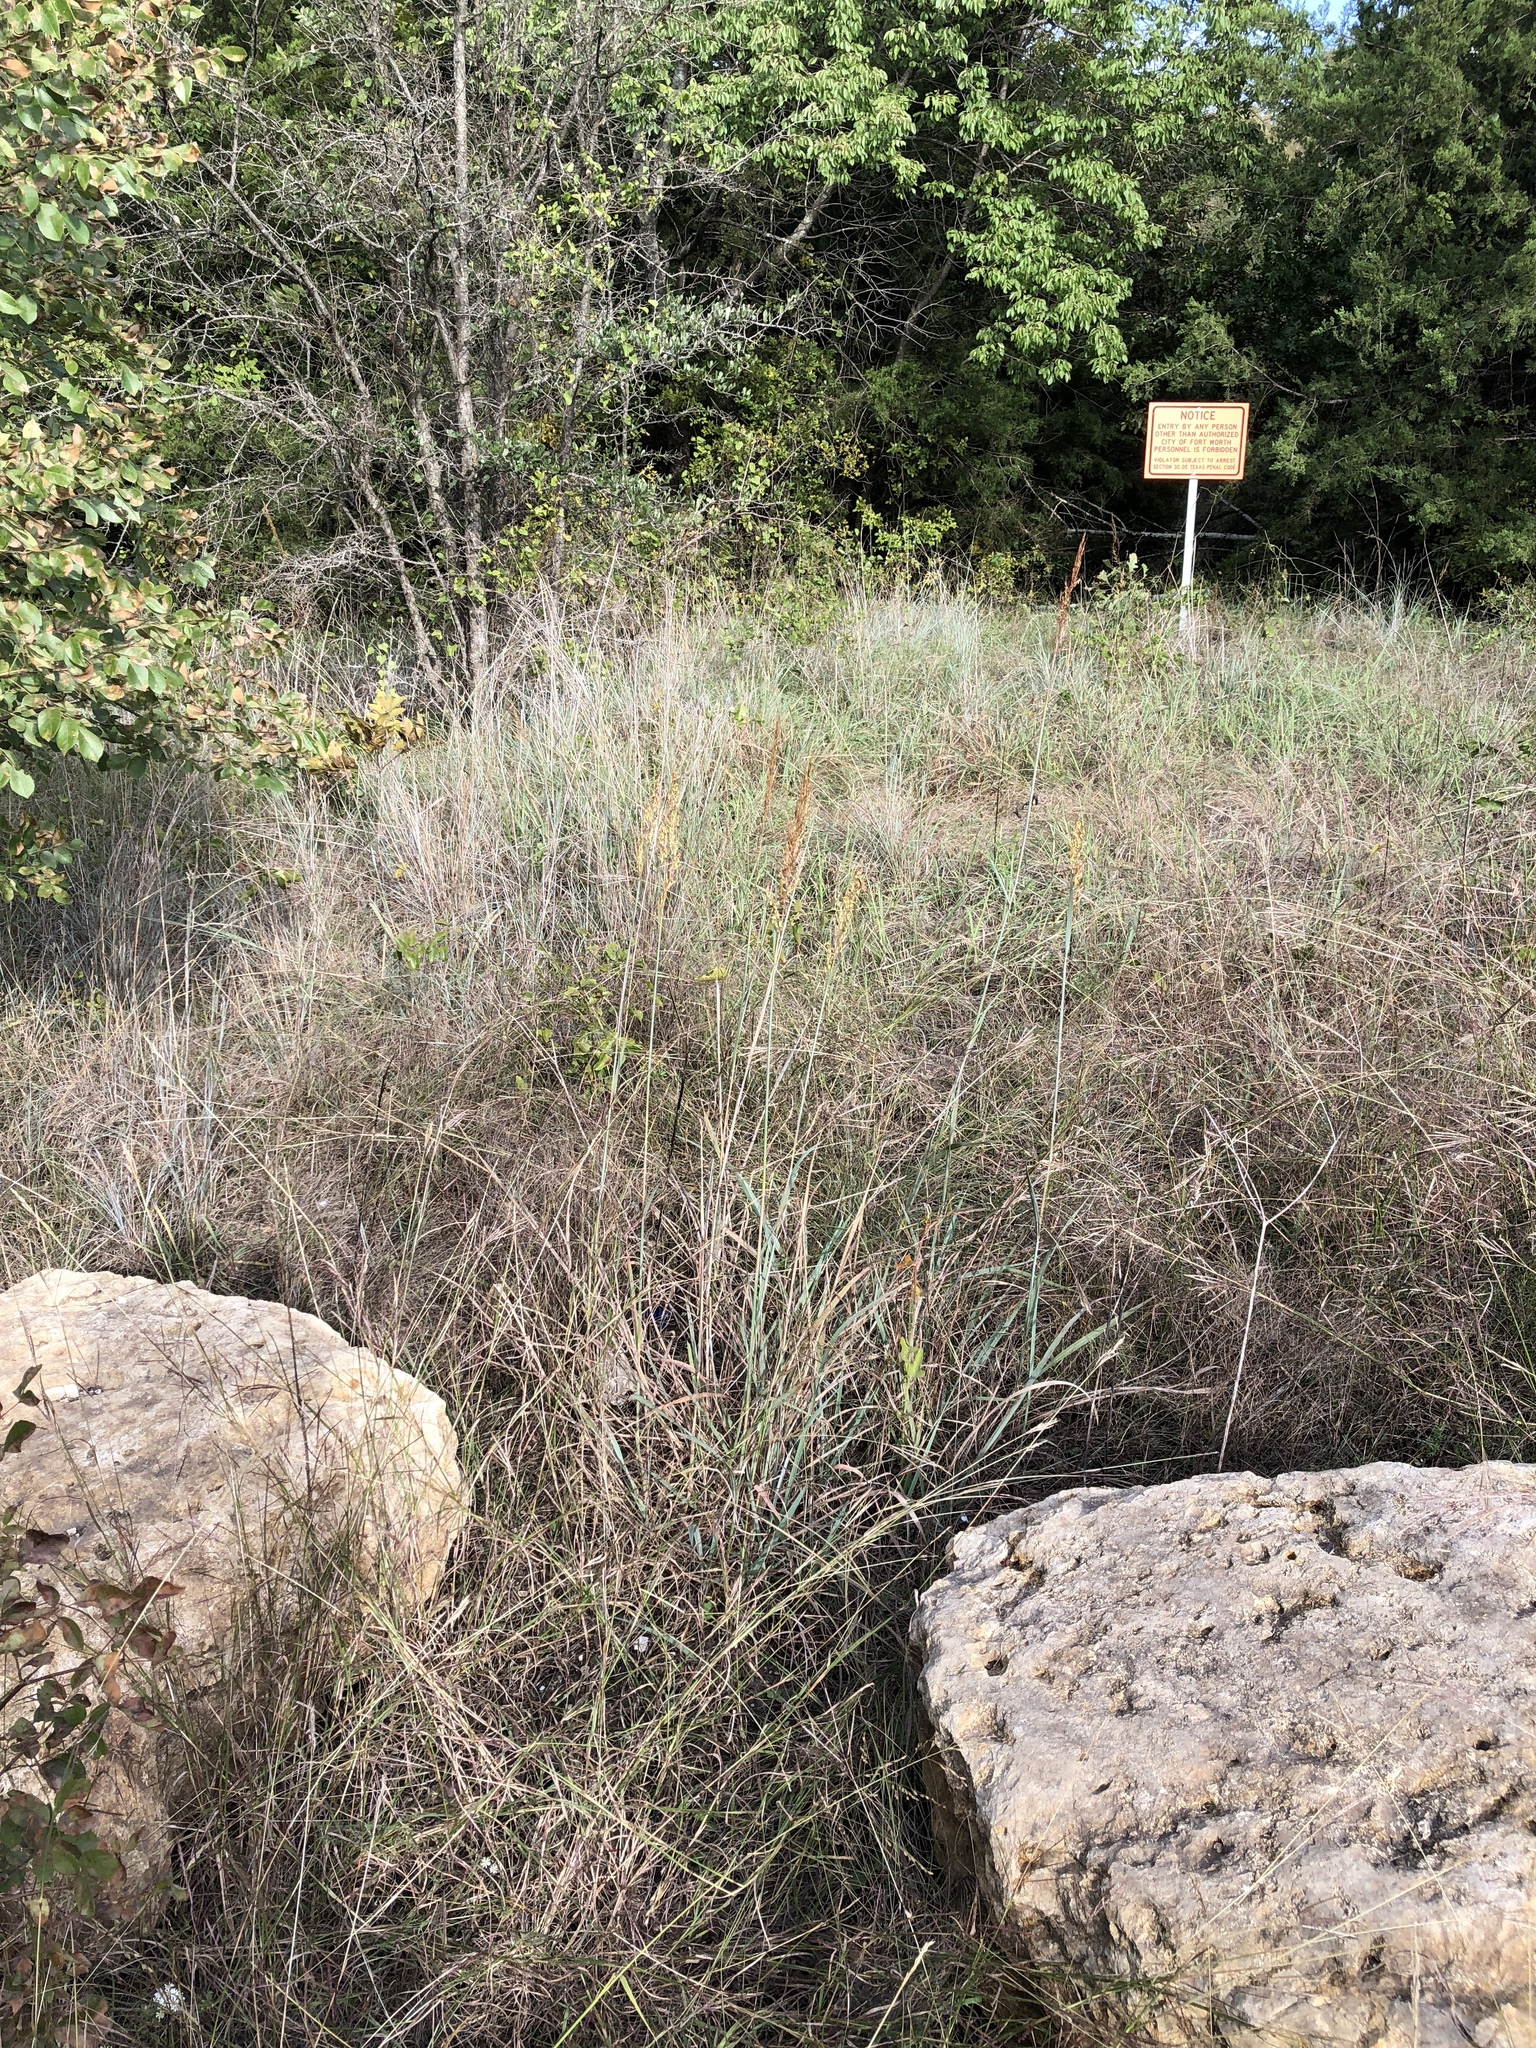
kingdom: Plantae
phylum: Tracheophyta
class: Liliopsida
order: Poales
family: Poaceae
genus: Sorghastrum
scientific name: Sorghastrum nutans
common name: Indian grass
